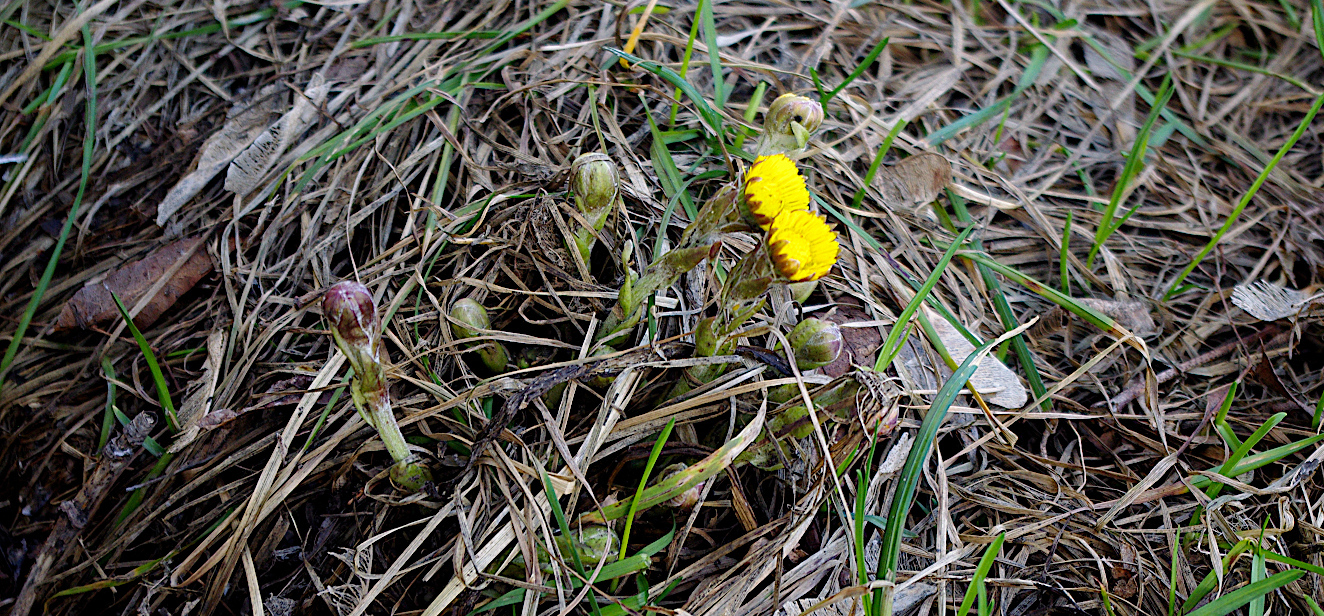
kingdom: Plantae
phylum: Tracheophyta
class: Magnoliopsida
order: Asterales
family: Asteraceae
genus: Tussilago
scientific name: Tussilago farfara
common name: Coltsfoot
